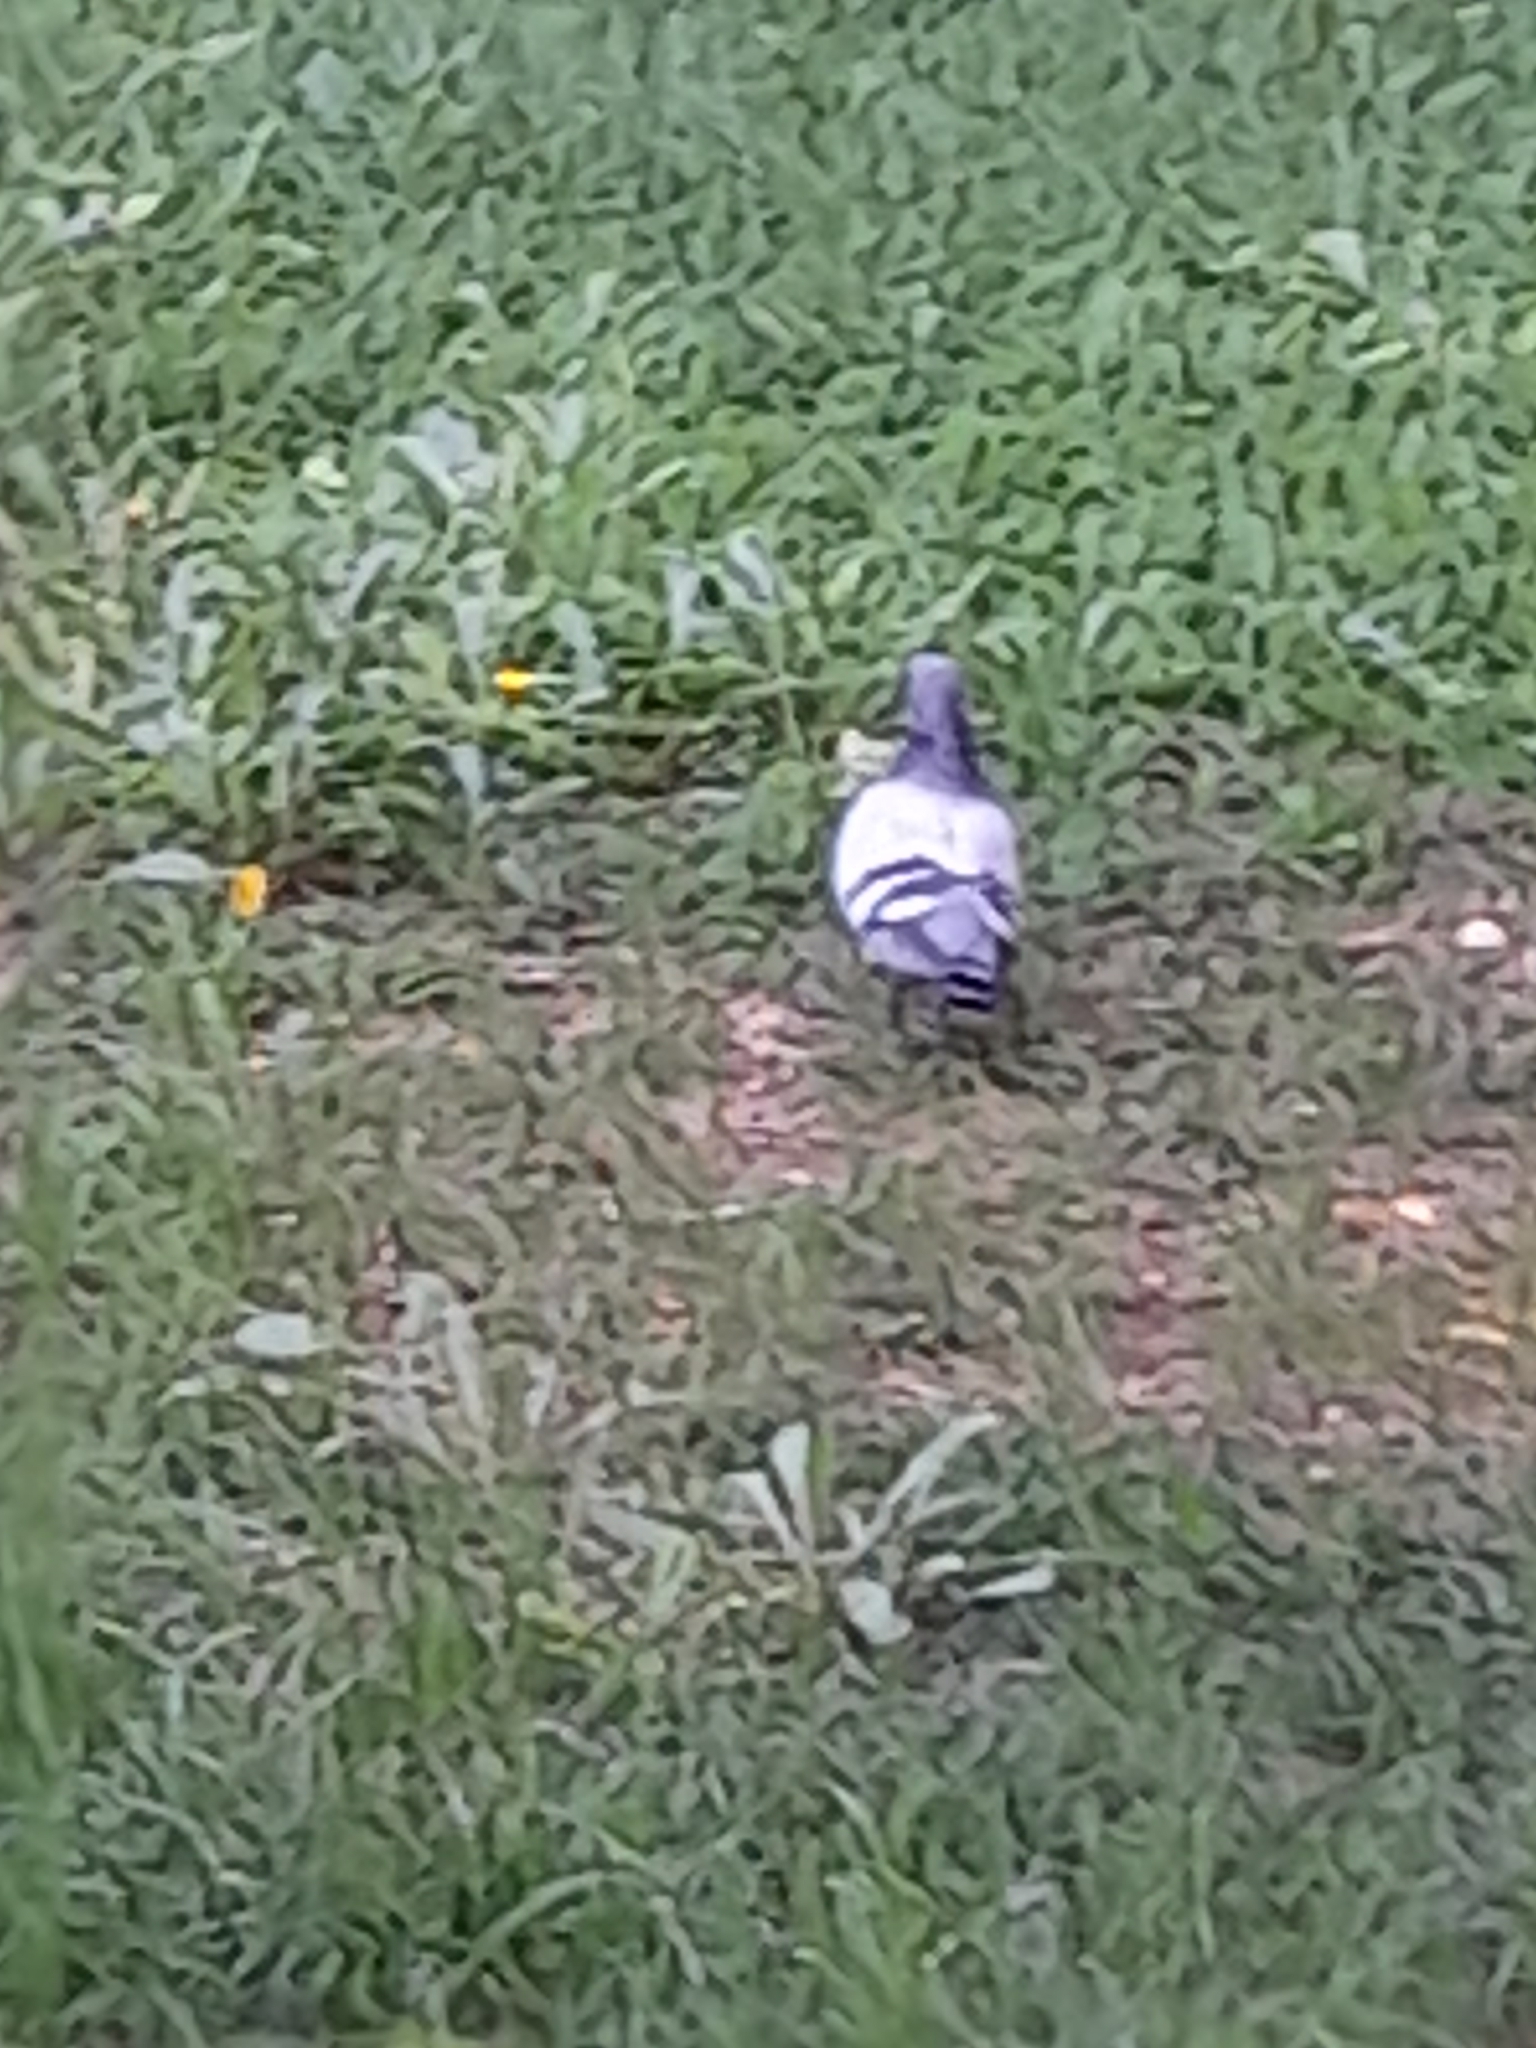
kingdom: Animalia
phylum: Chordata
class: Aves
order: Columbiformes
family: Columbidae
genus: Columba
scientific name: Columba livia
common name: Rock pigeon
